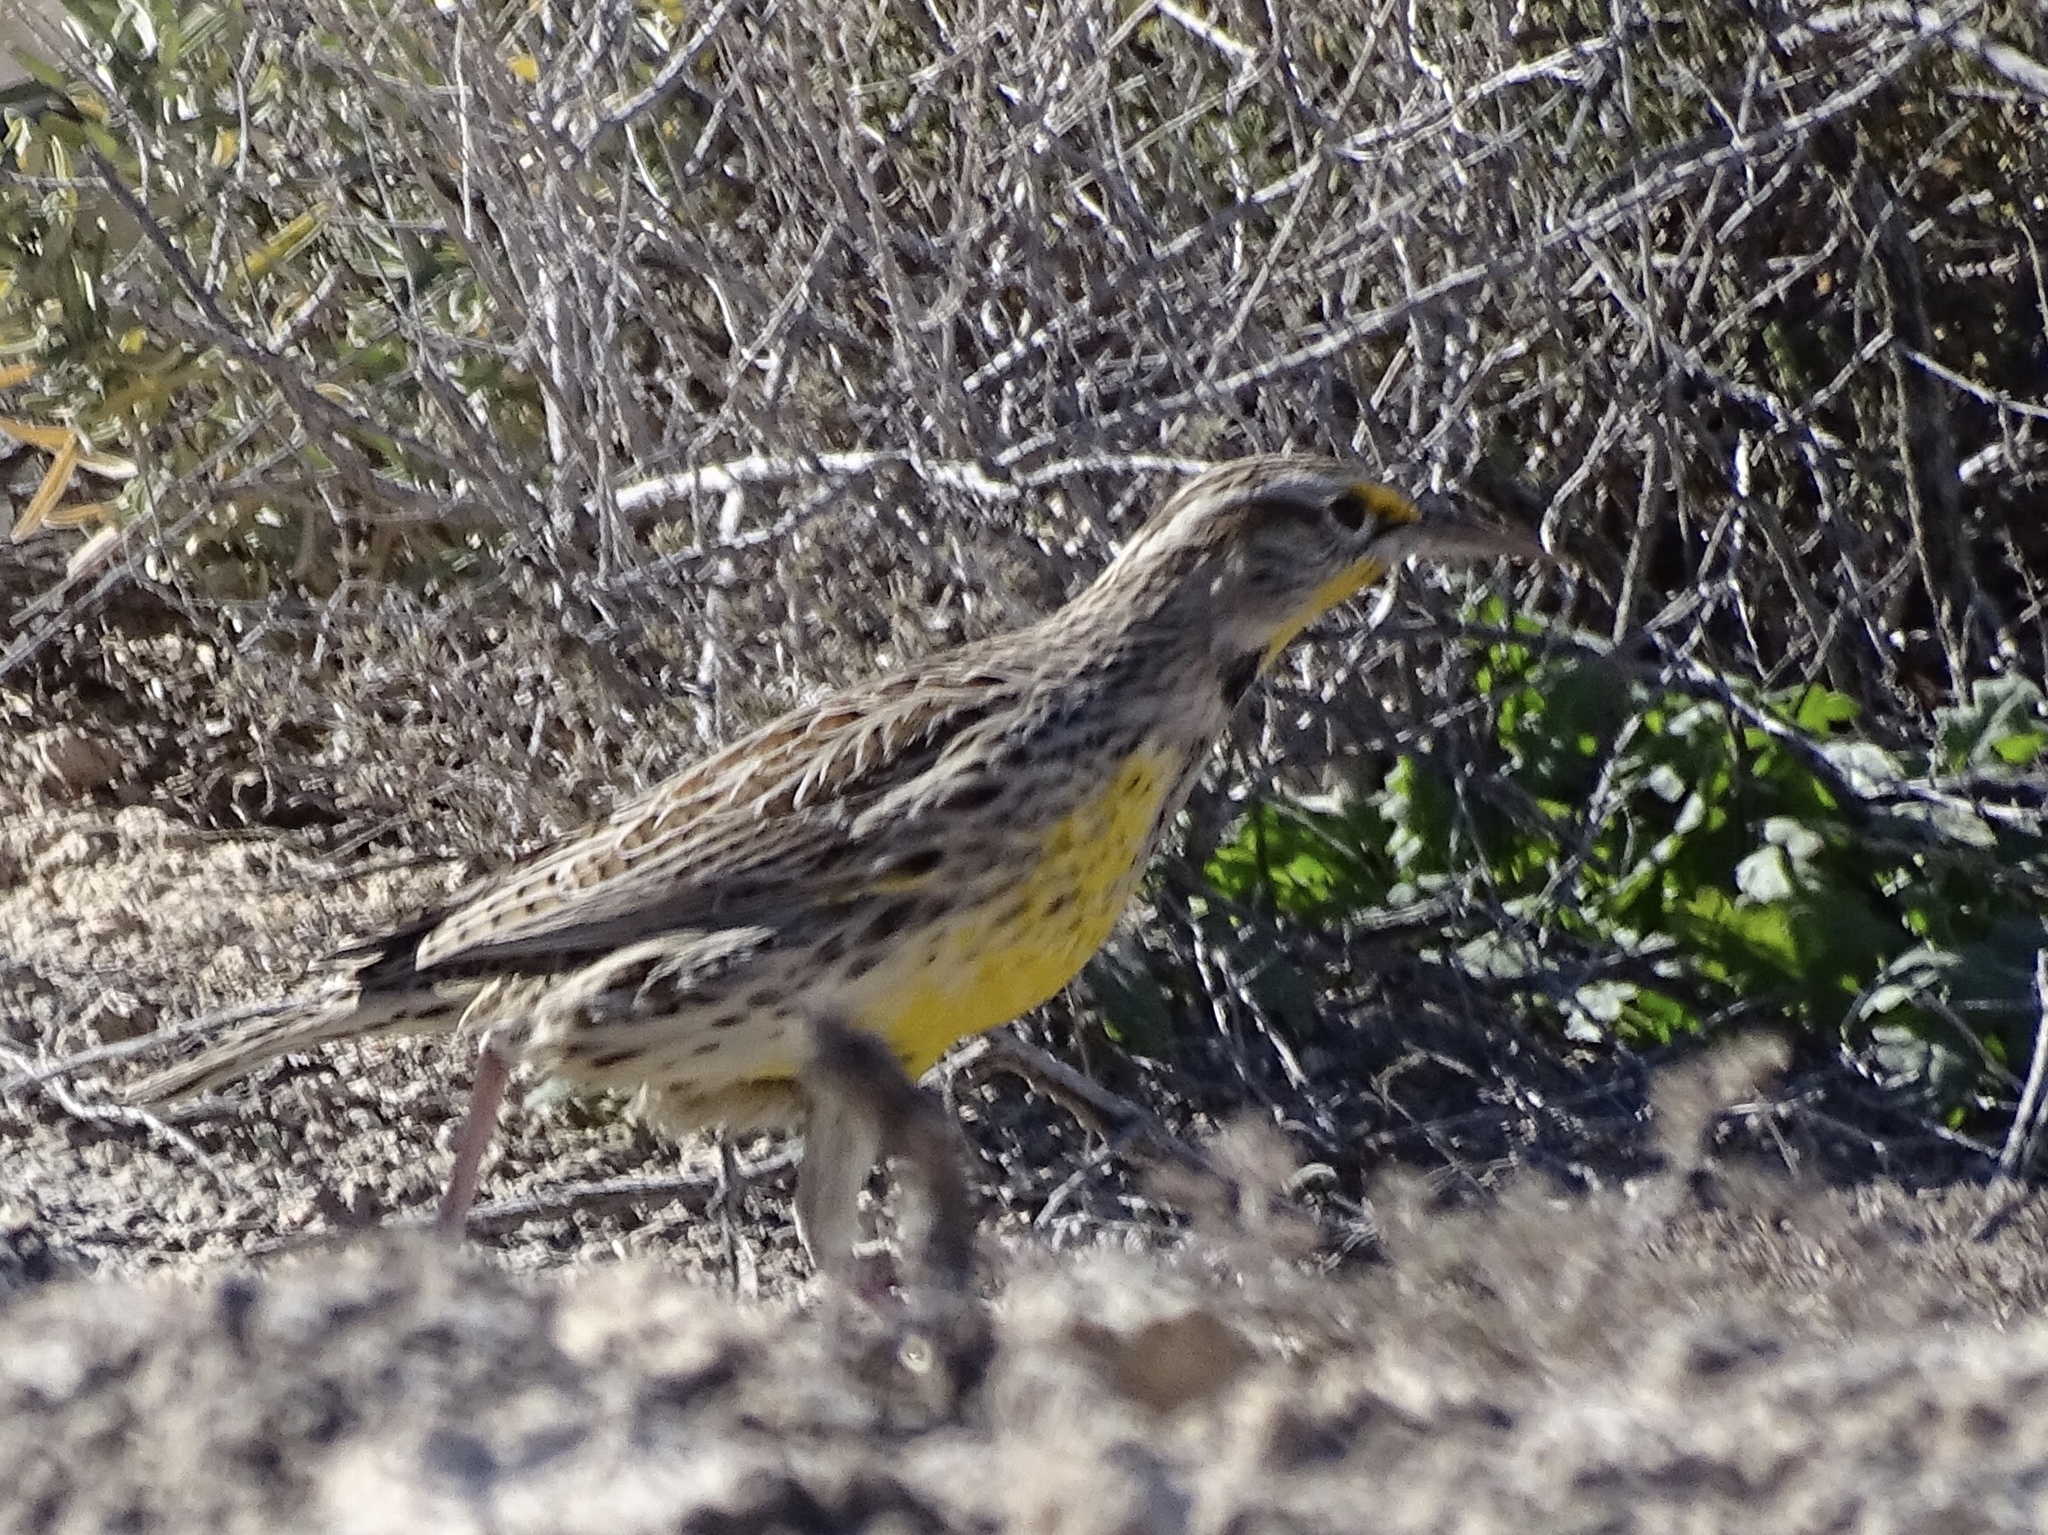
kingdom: Animalia
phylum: Chordata
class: Aves
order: Passeriformes
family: Icteridae
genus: Sturnella
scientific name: Sturnella neglecta
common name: Western meadowlark
